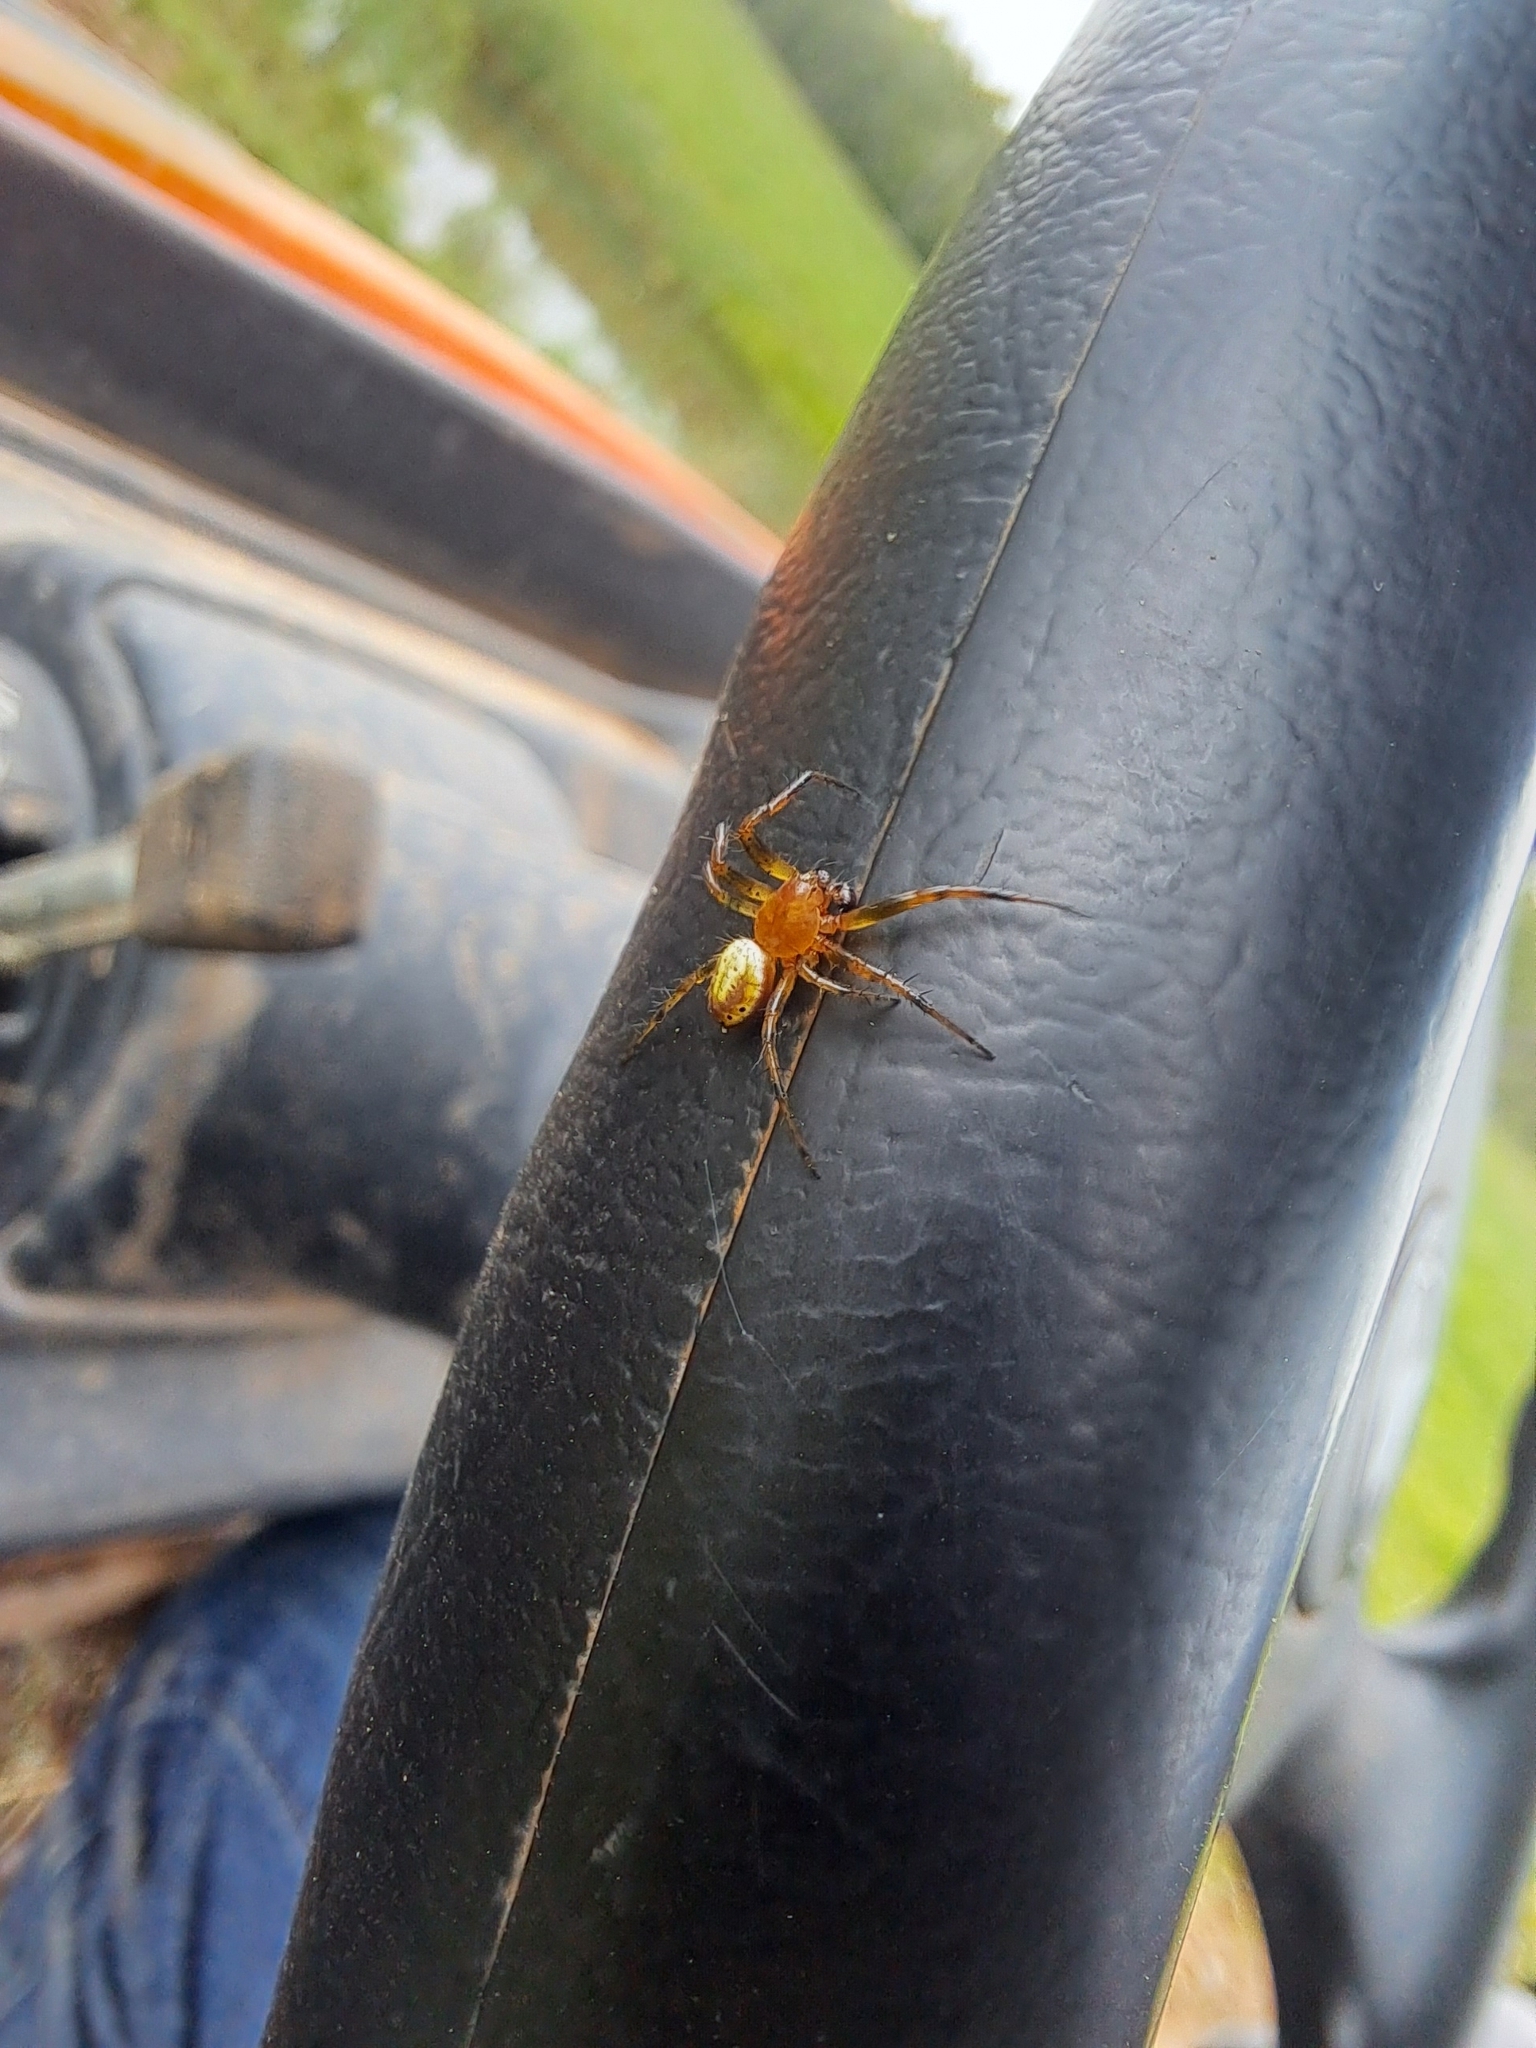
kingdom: Animalia
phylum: Arthropoda
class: Arachnida
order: Araneae
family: Araneidae
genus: Araniella
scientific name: Araniella displicata
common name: Sixspotted orb weaver
